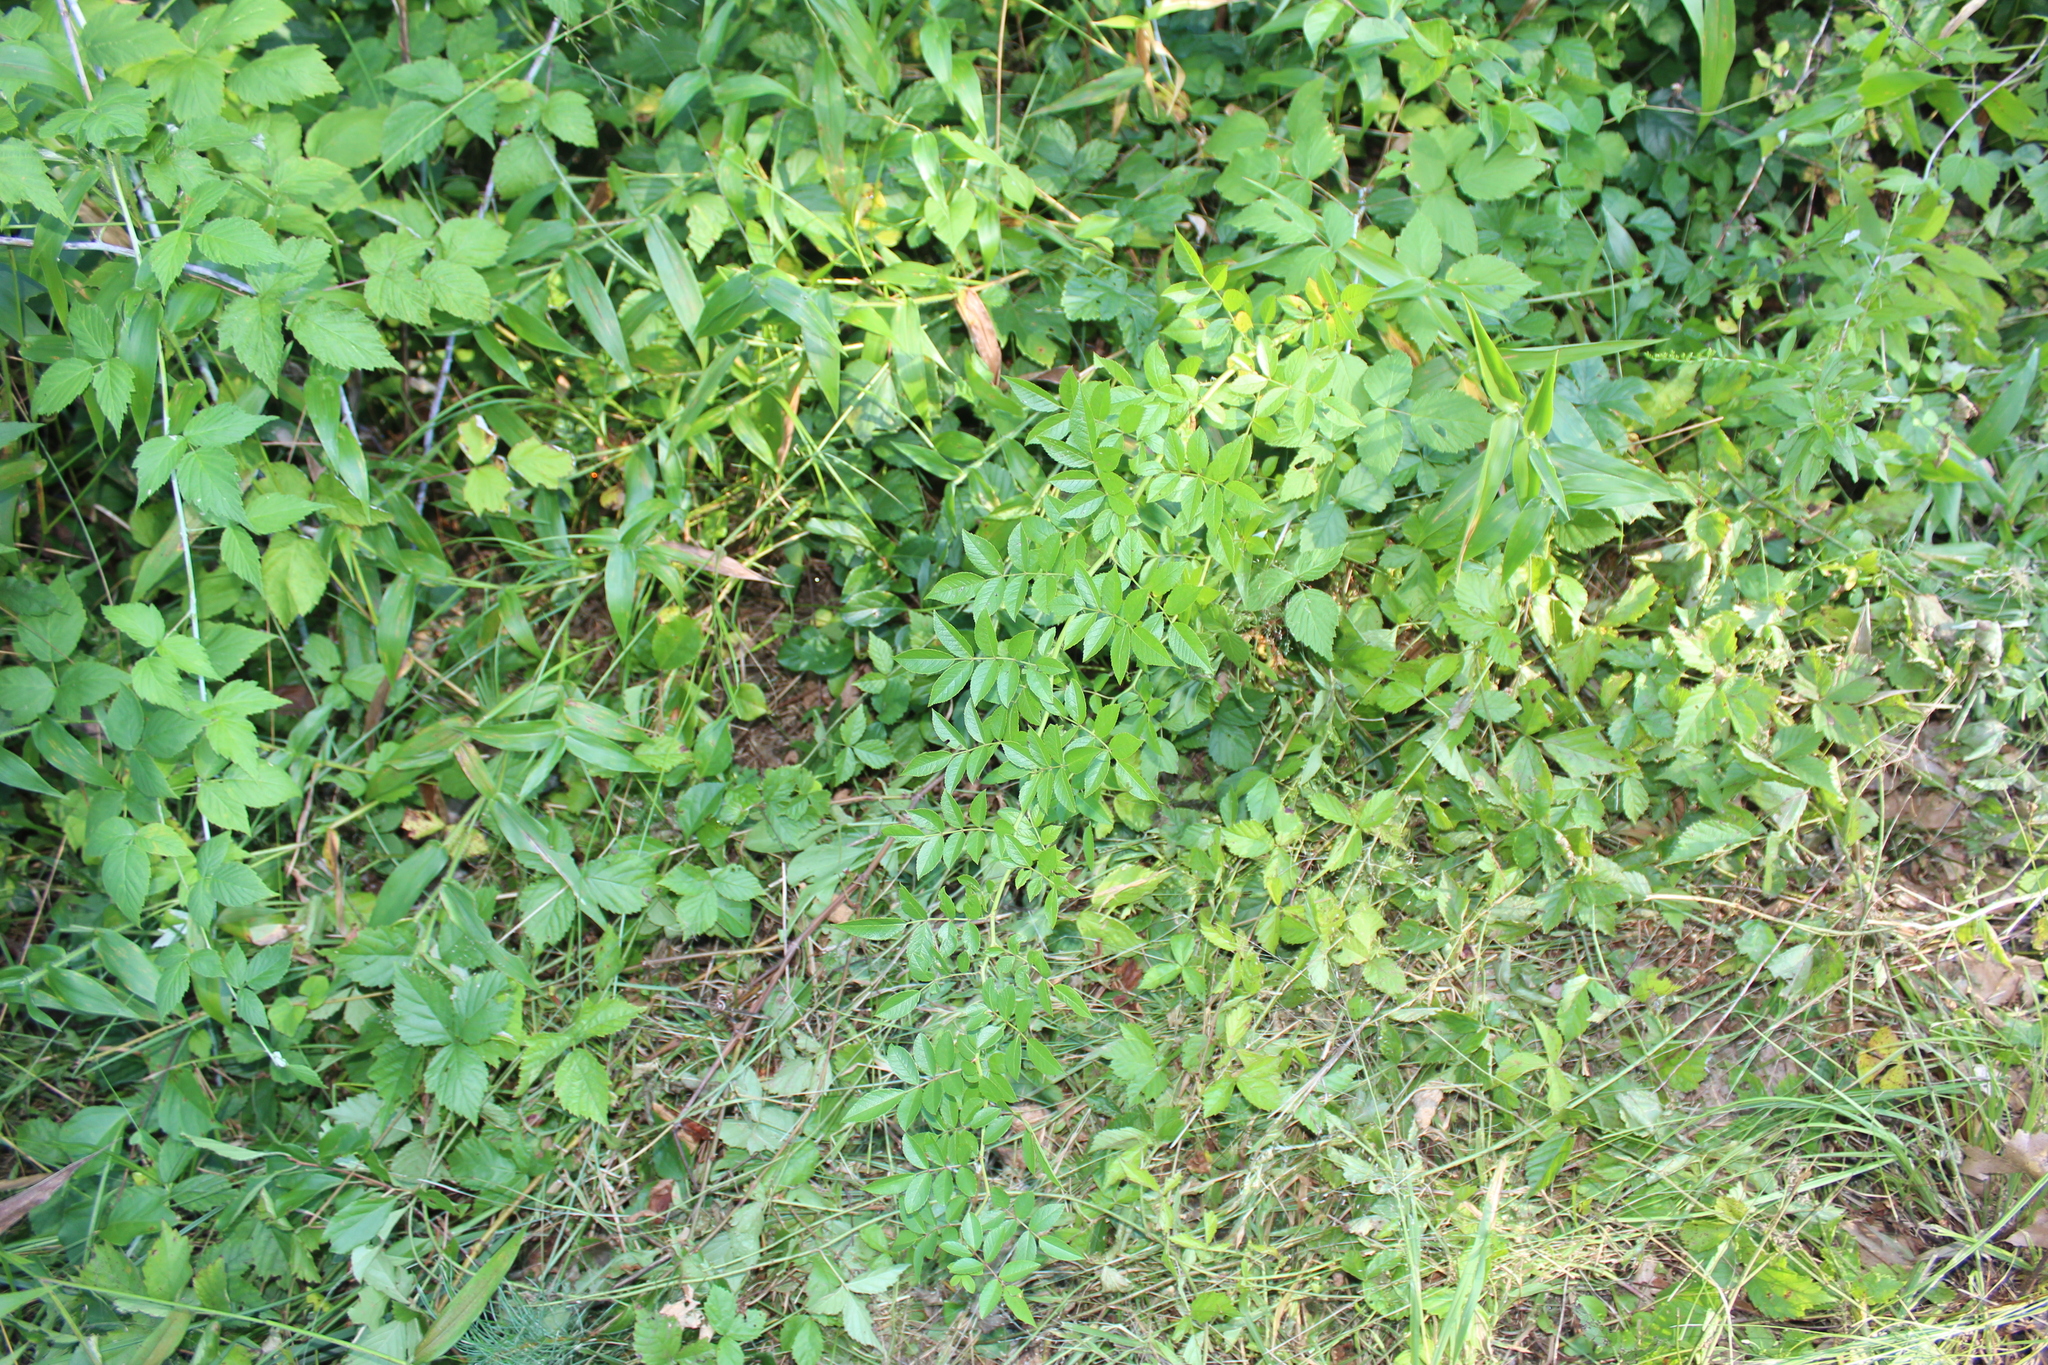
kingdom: Plantae
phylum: Tracheophyta
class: Magnoliopsida
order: Rosales
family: Rosaceae
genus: Rosa
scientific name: Rosa multiflora
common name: Multiflora rose
